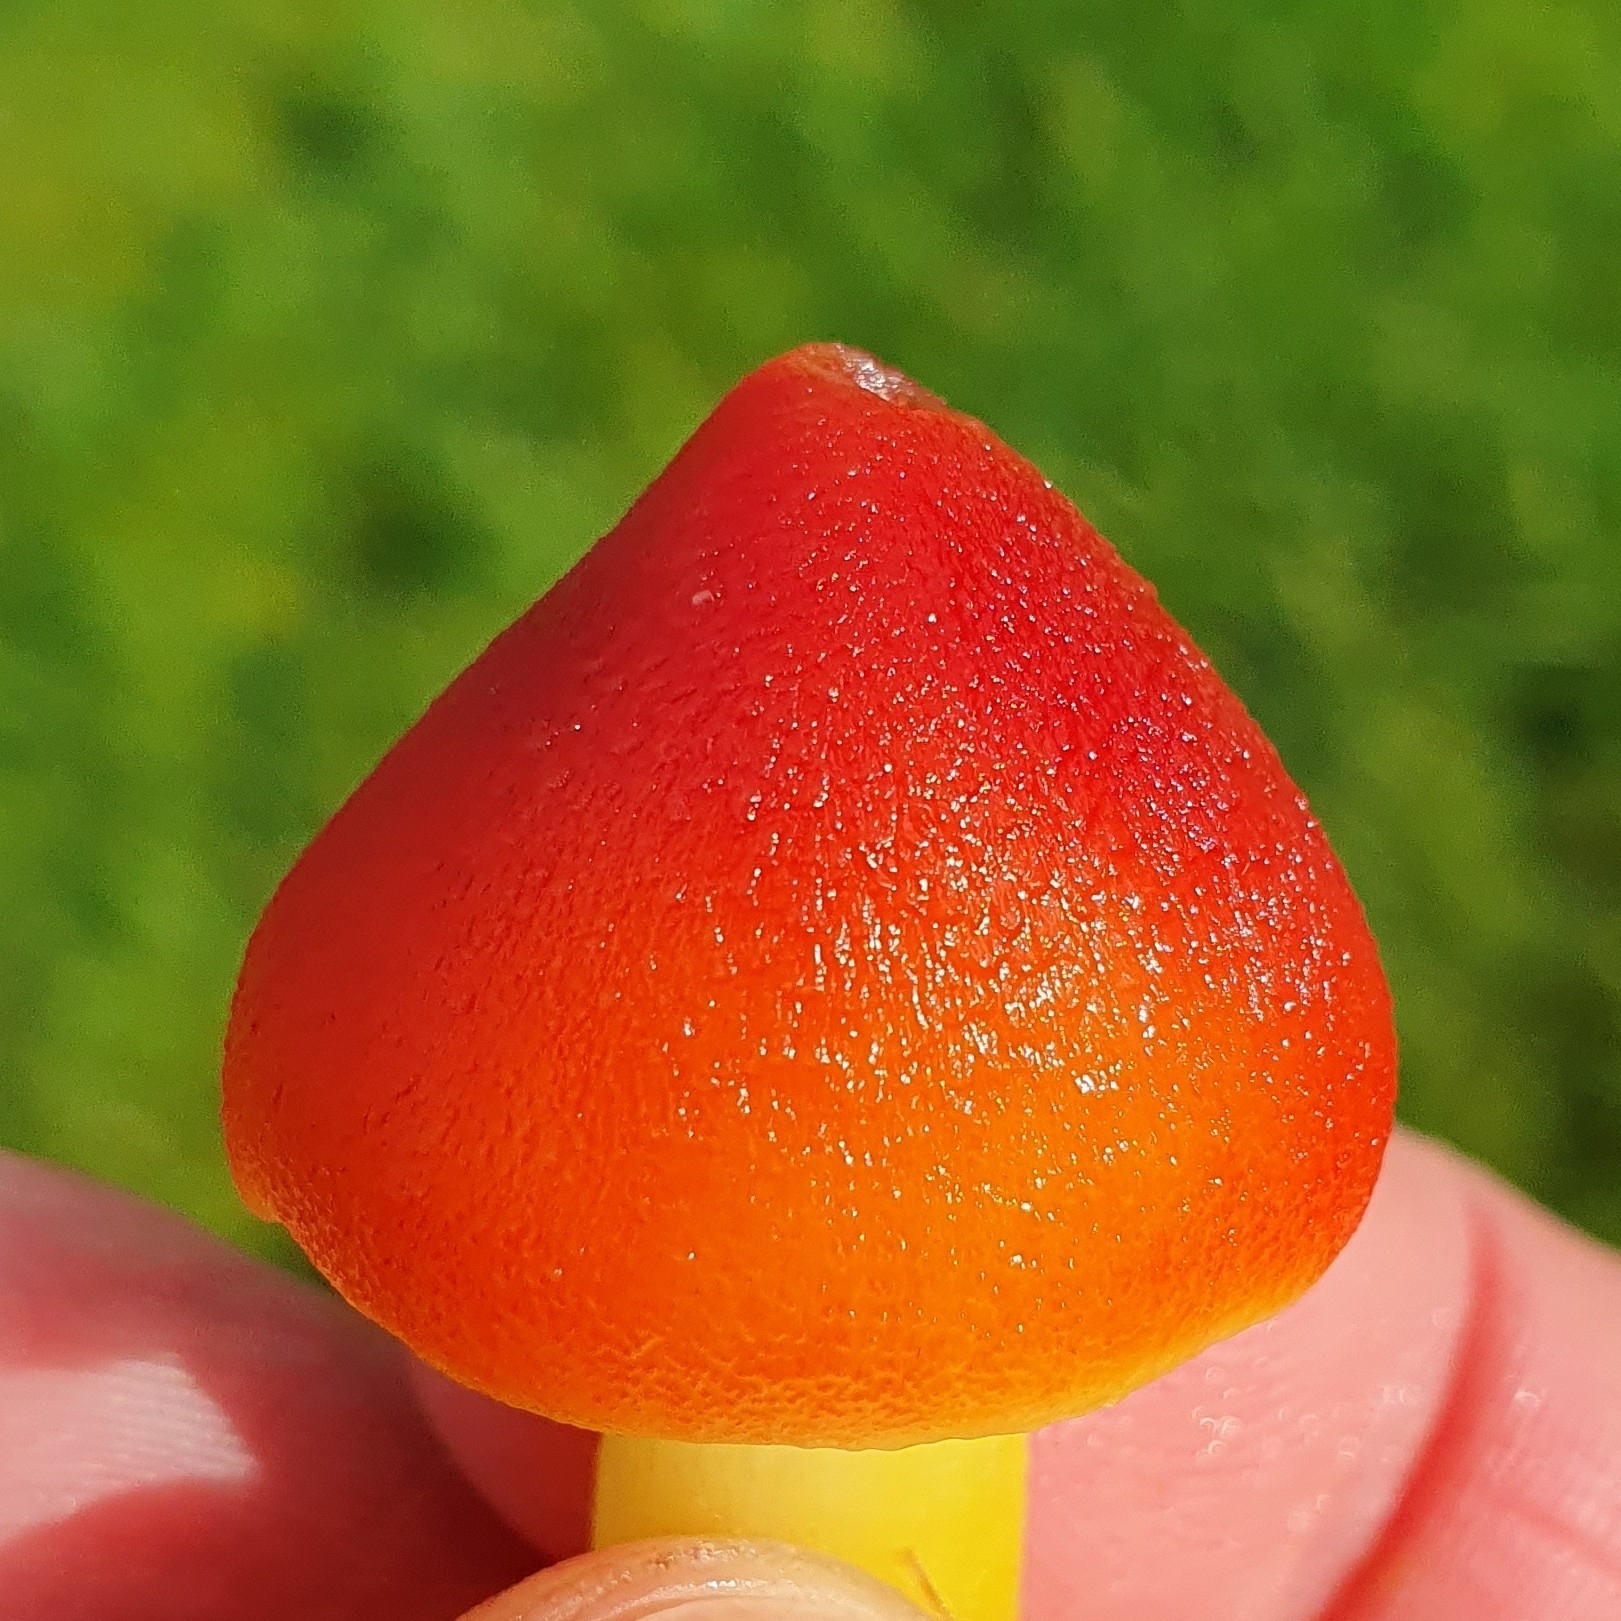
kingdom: Fungi
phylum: Basidiomycota
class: Agaricomycetes
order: Agaricales
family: Hygrophoraceae
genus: Hygrocybe
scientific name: Hygrocybe punicea
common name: Crimson waxcap
